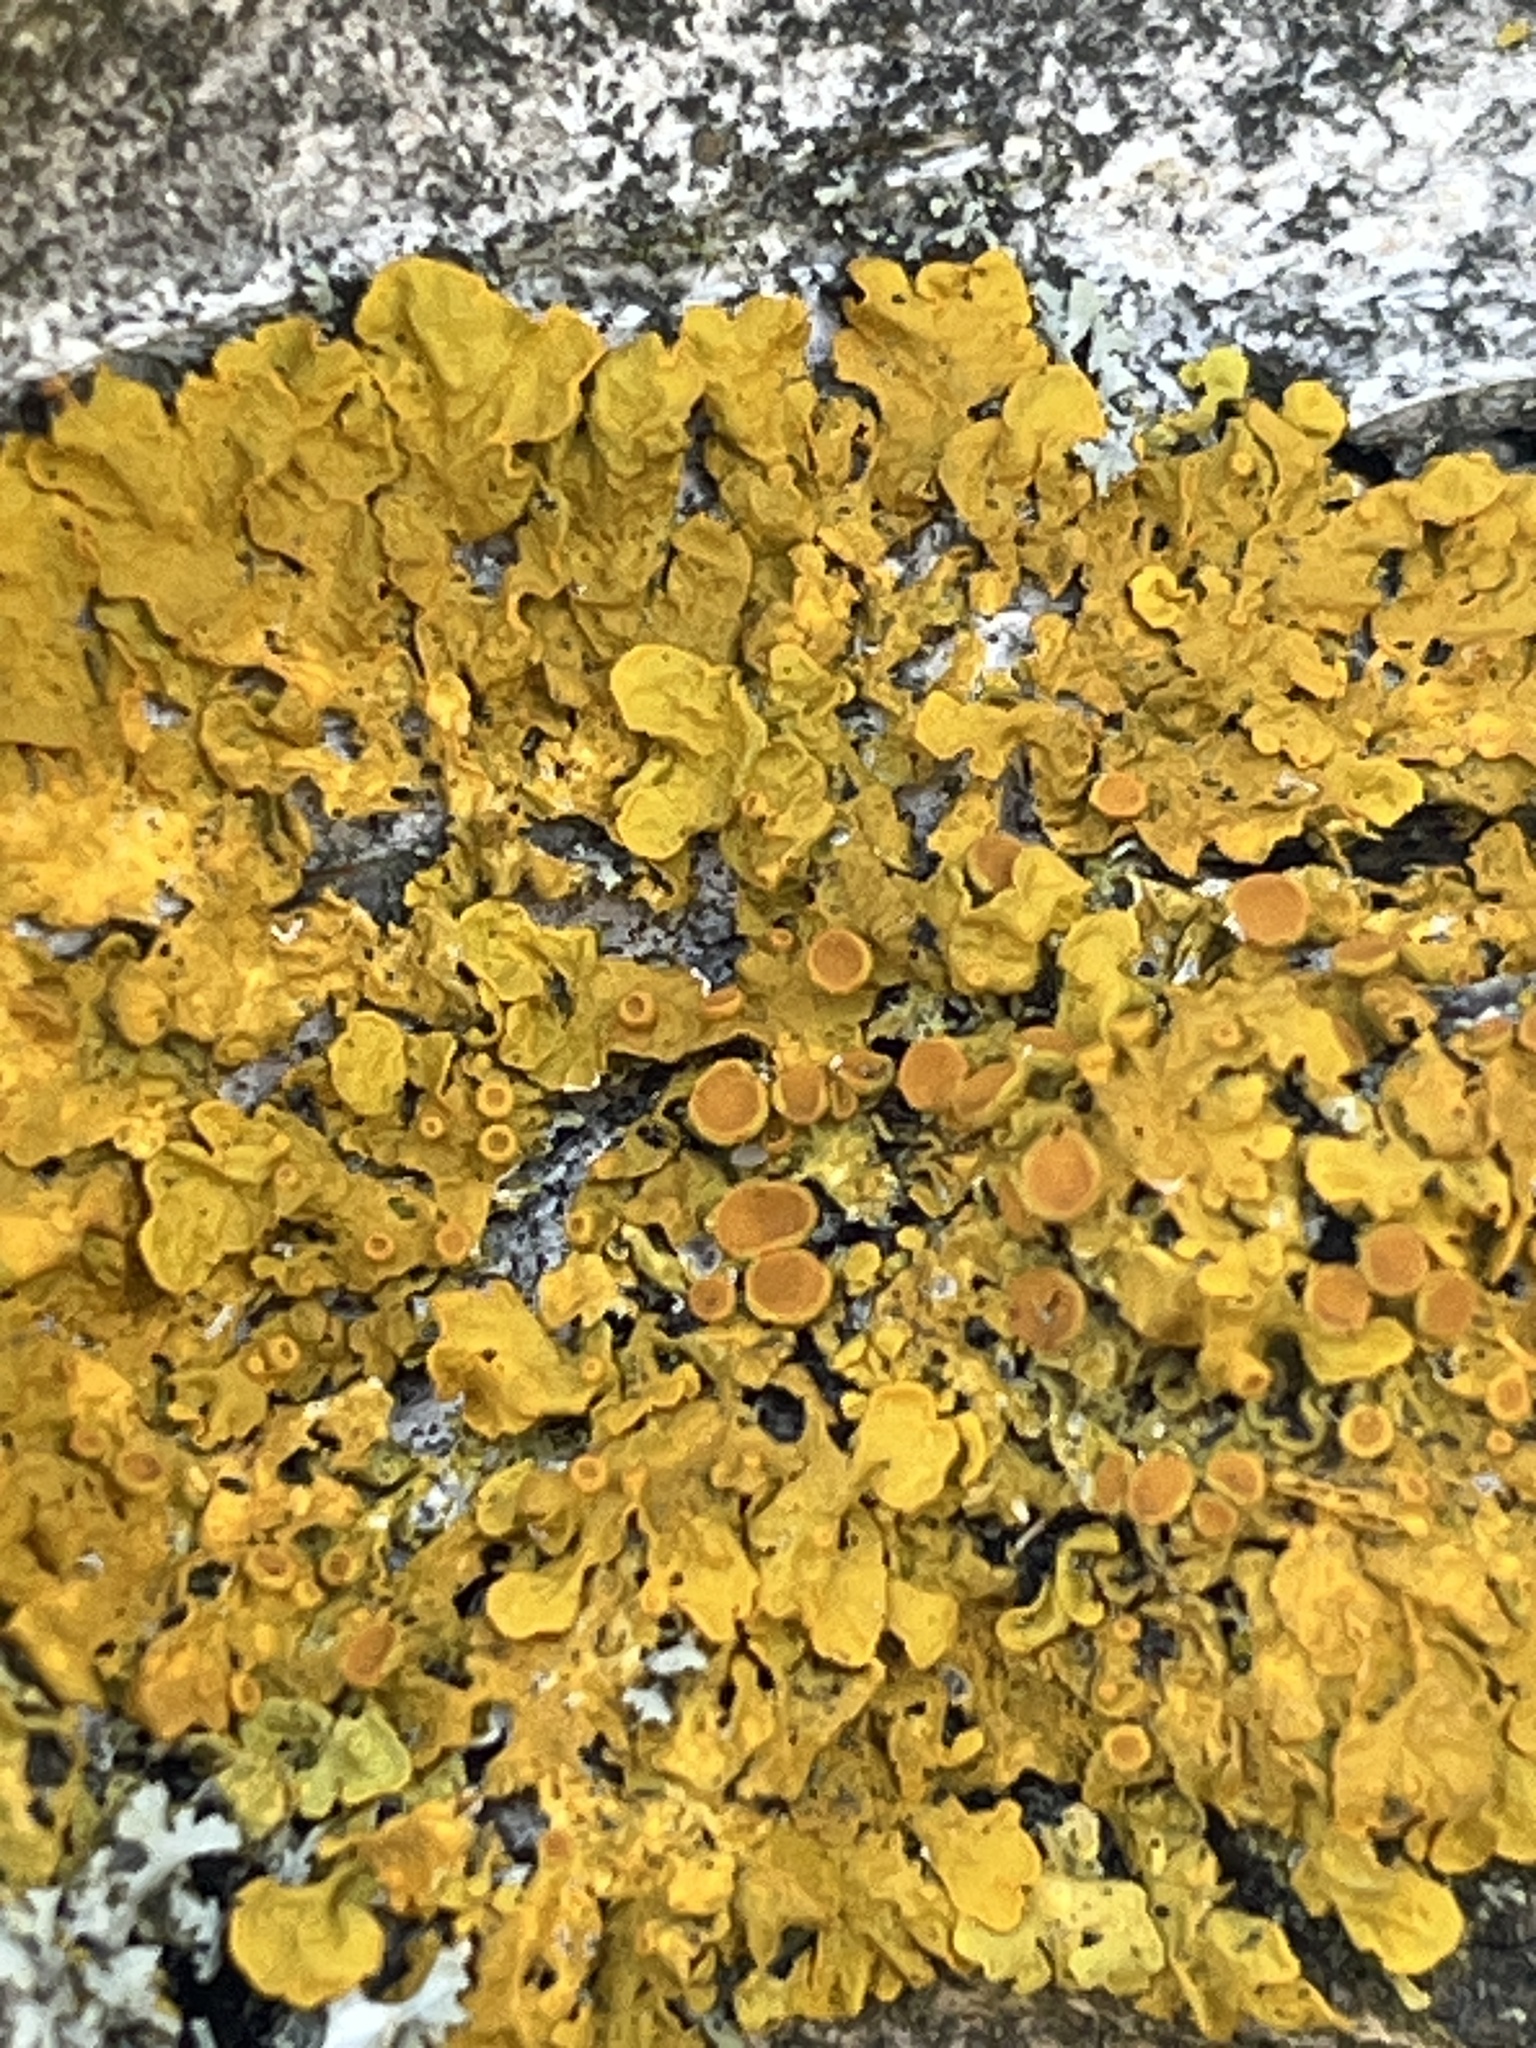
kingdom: Fungi
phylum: Ascomycota
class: Lecanoromycetes
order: Teloschistales
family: Teloschistaceae
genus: Xanthoria
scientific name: Xanthoria parietina
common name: Common orange lichen
